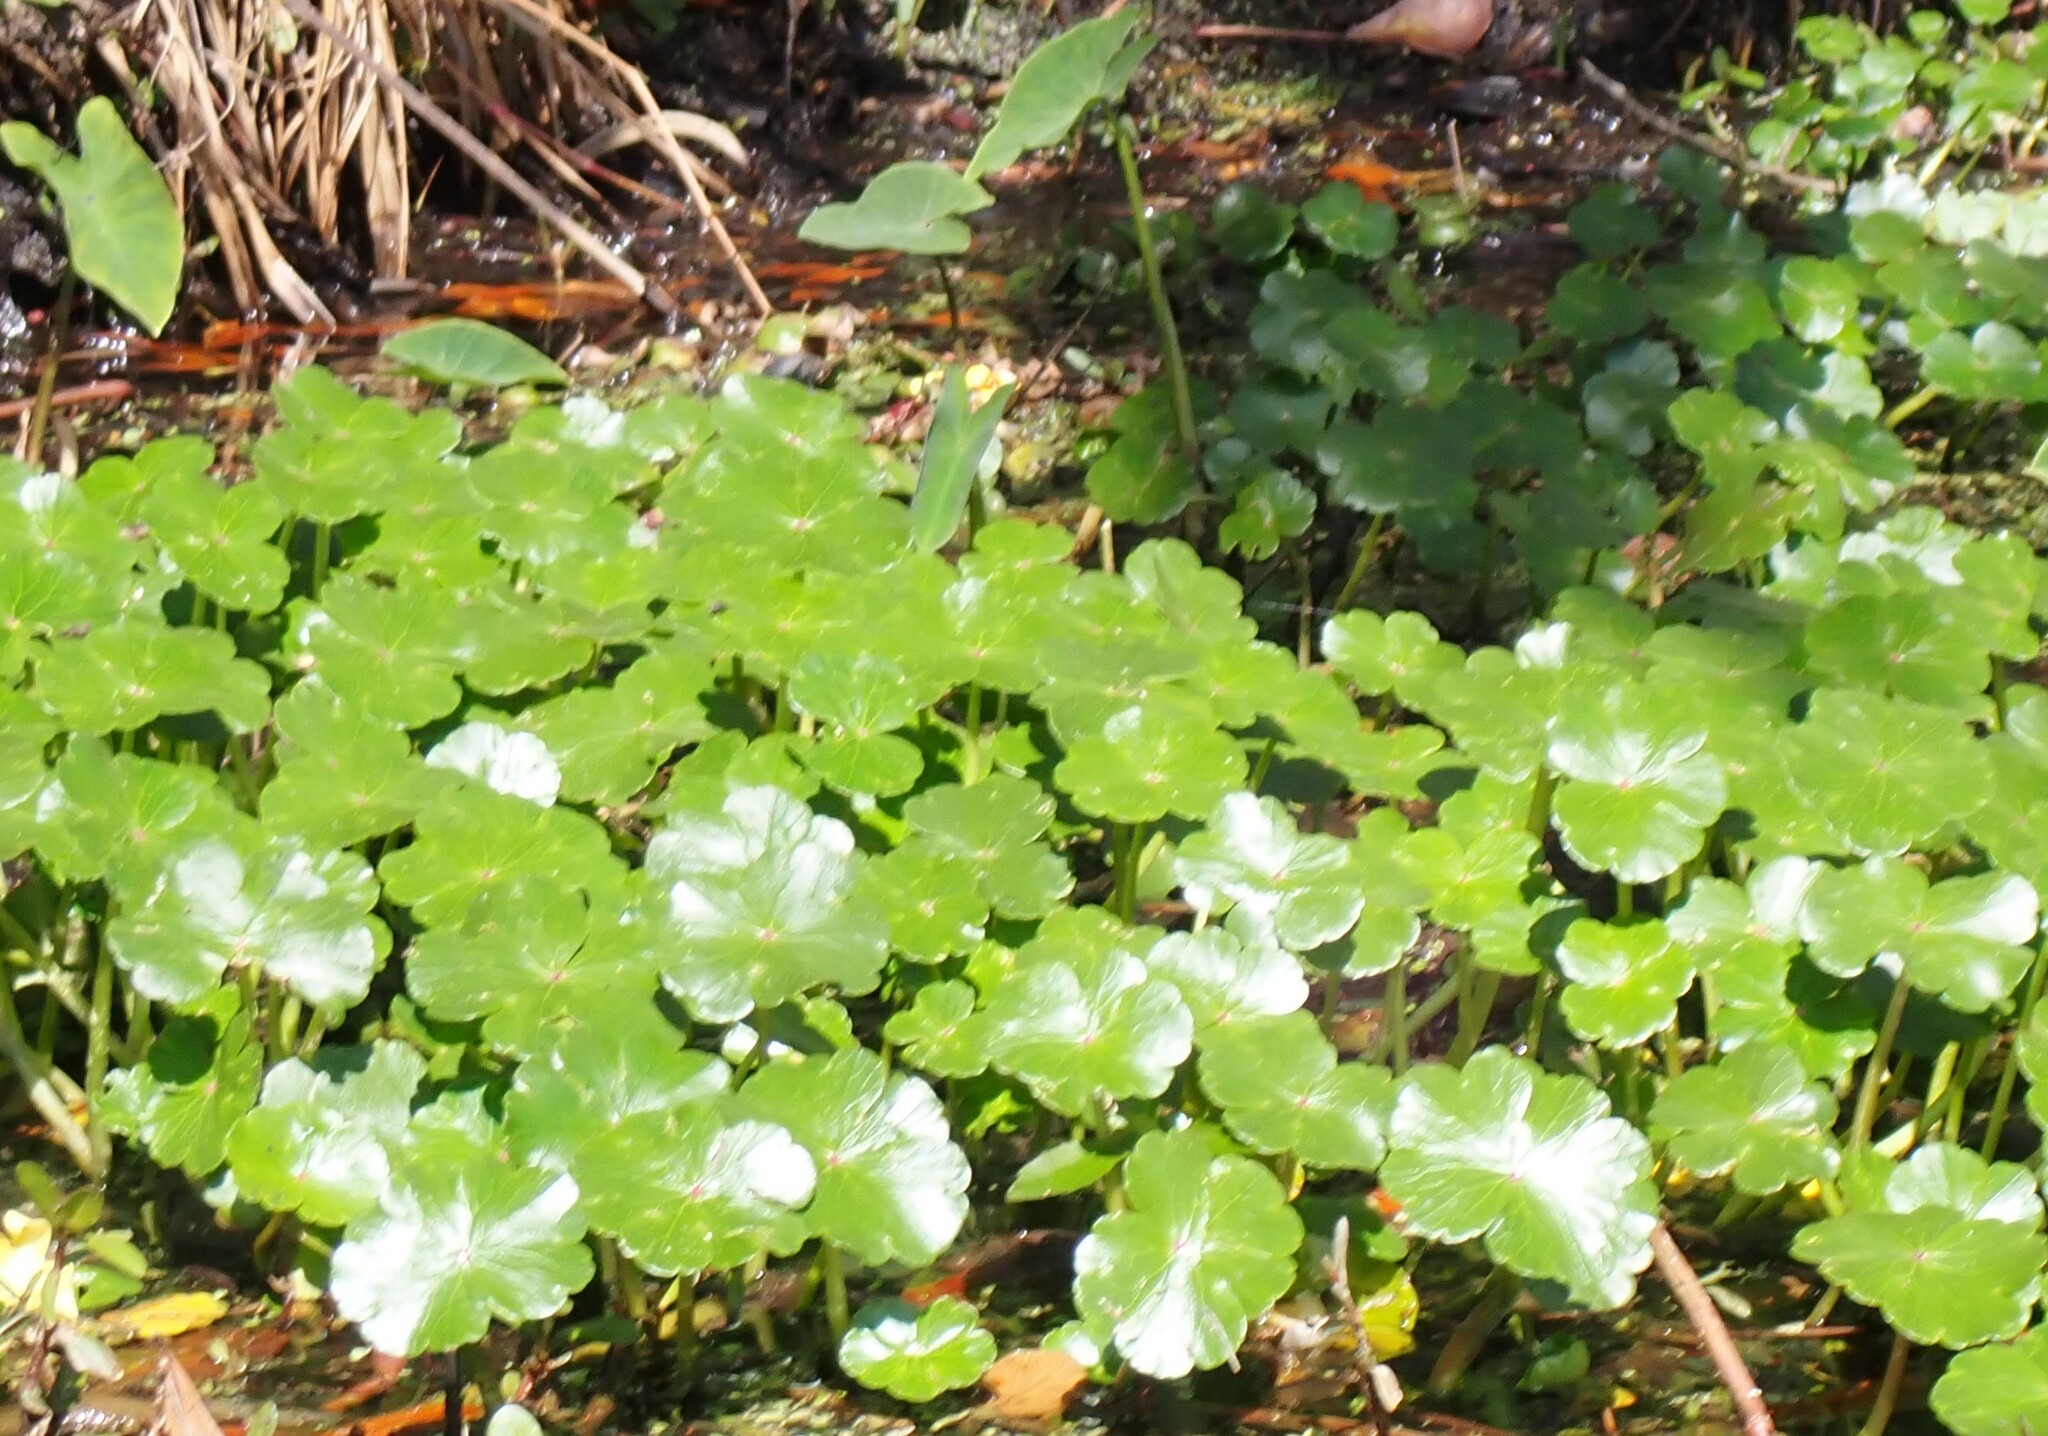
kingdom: Plantae
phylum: Tracheophyta
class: Magnoliopsida
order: Apiales
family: Araliaceae
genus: Hydrocotyle
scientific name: Hydrocotyle ranunculoides
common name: Floating pennywort
